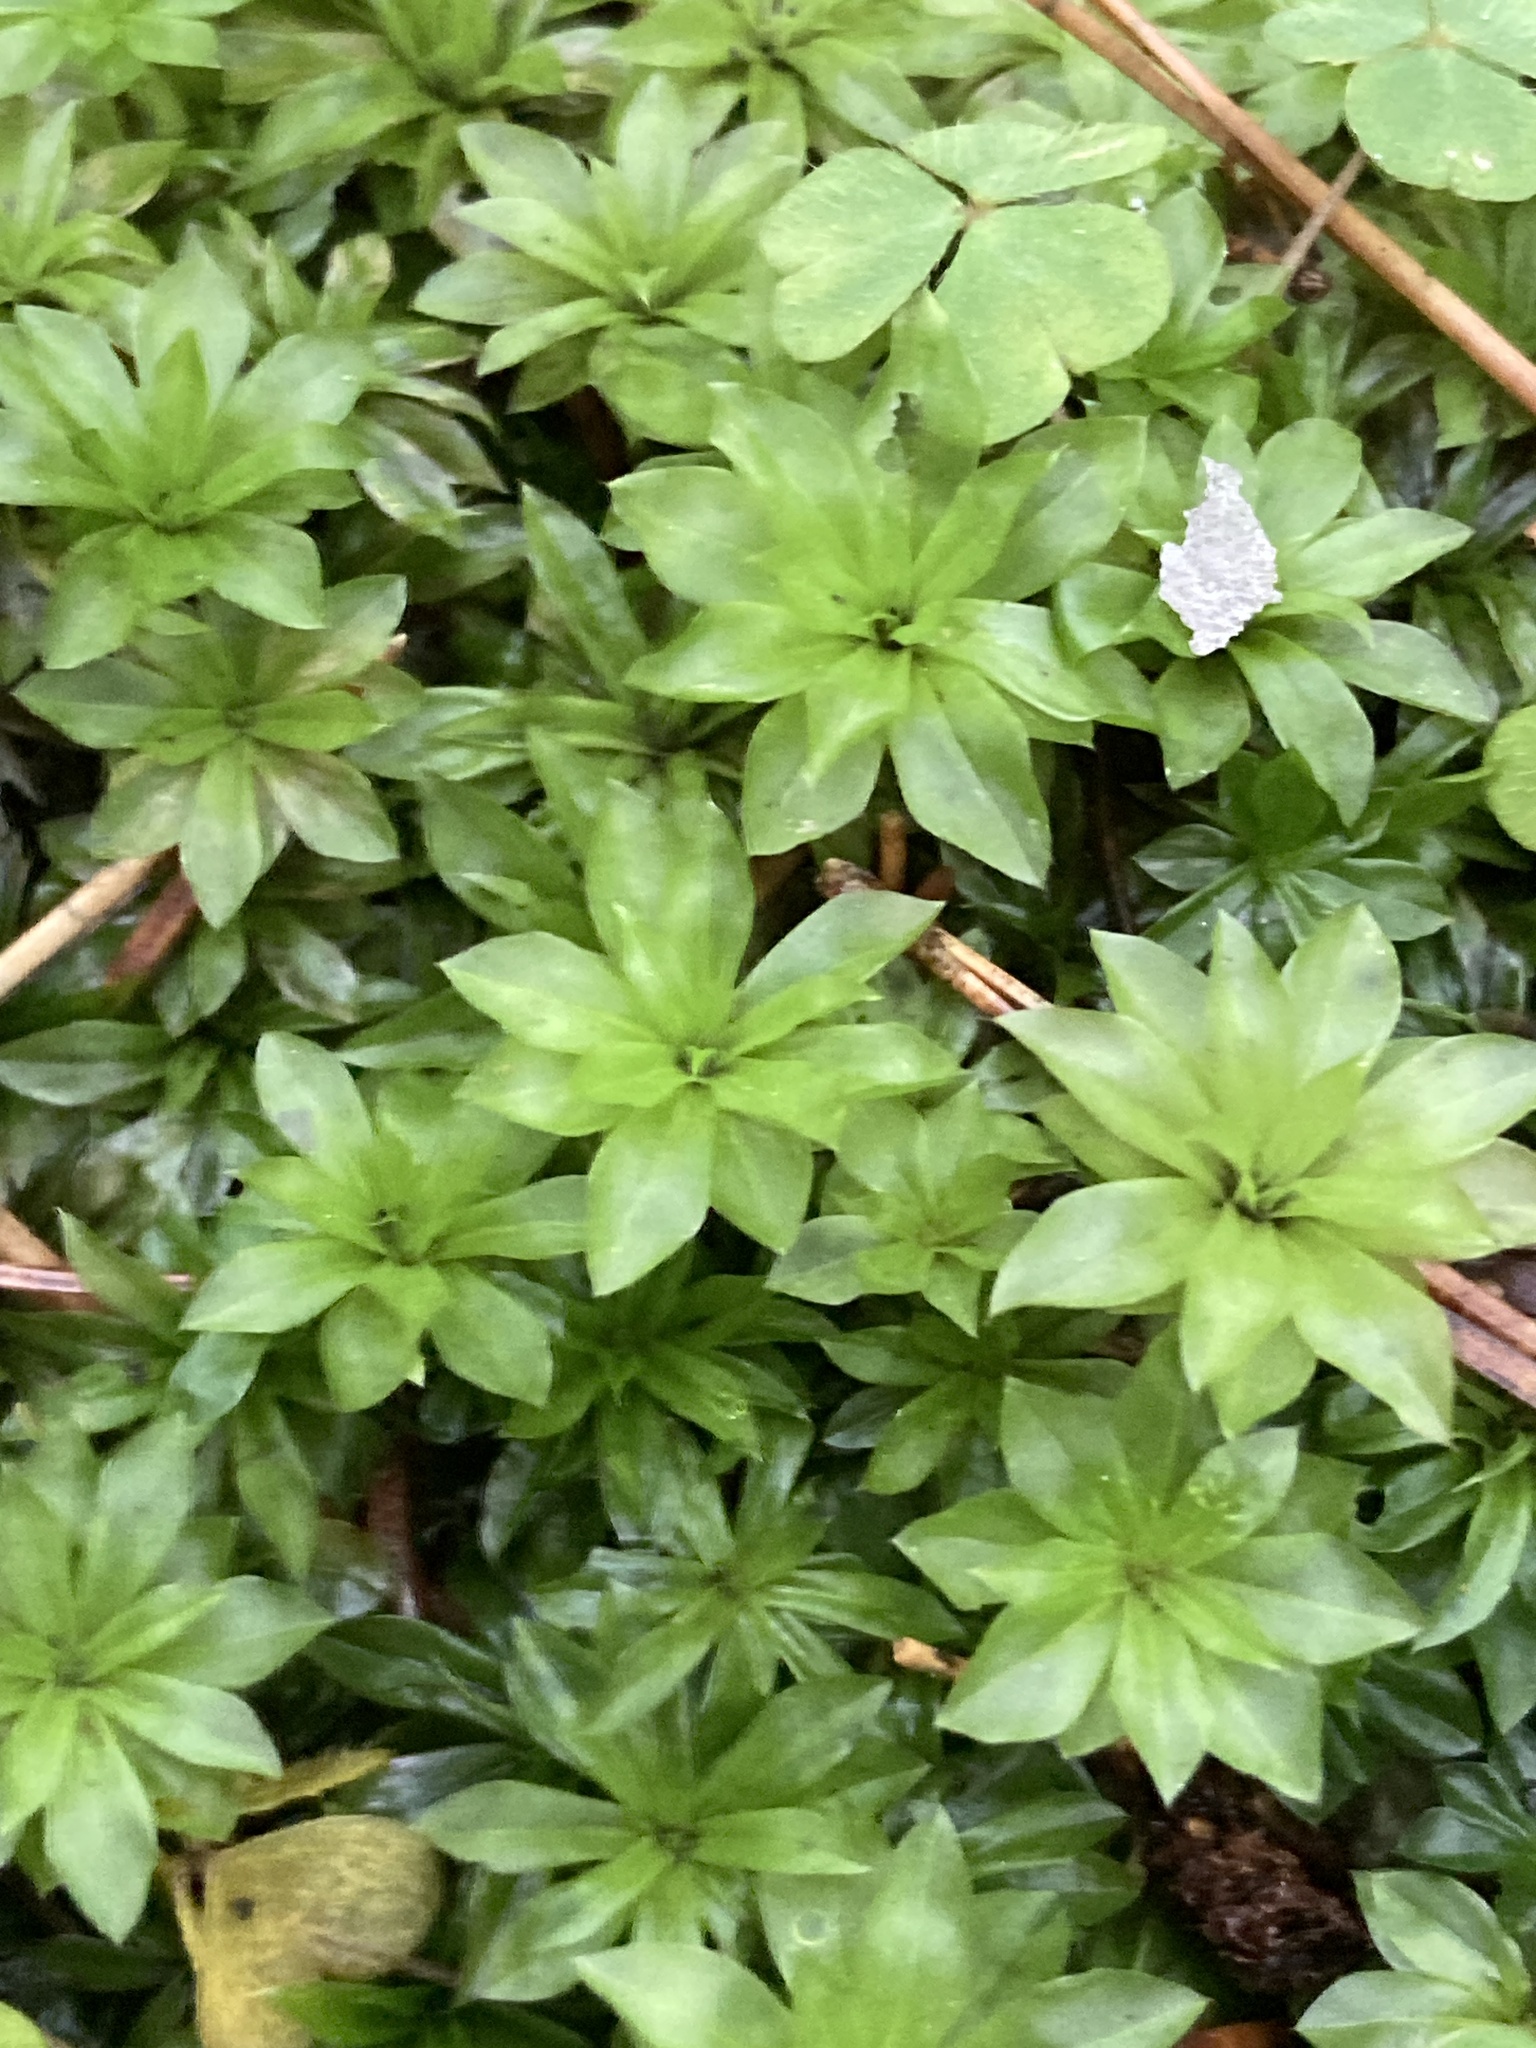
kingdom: Plantae
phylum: Bryophyta
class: Bryopsida
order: Bryales
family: Bryaceae
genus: Rhodobryum
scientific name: Rhodobryum roseum
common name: Rose-moss
